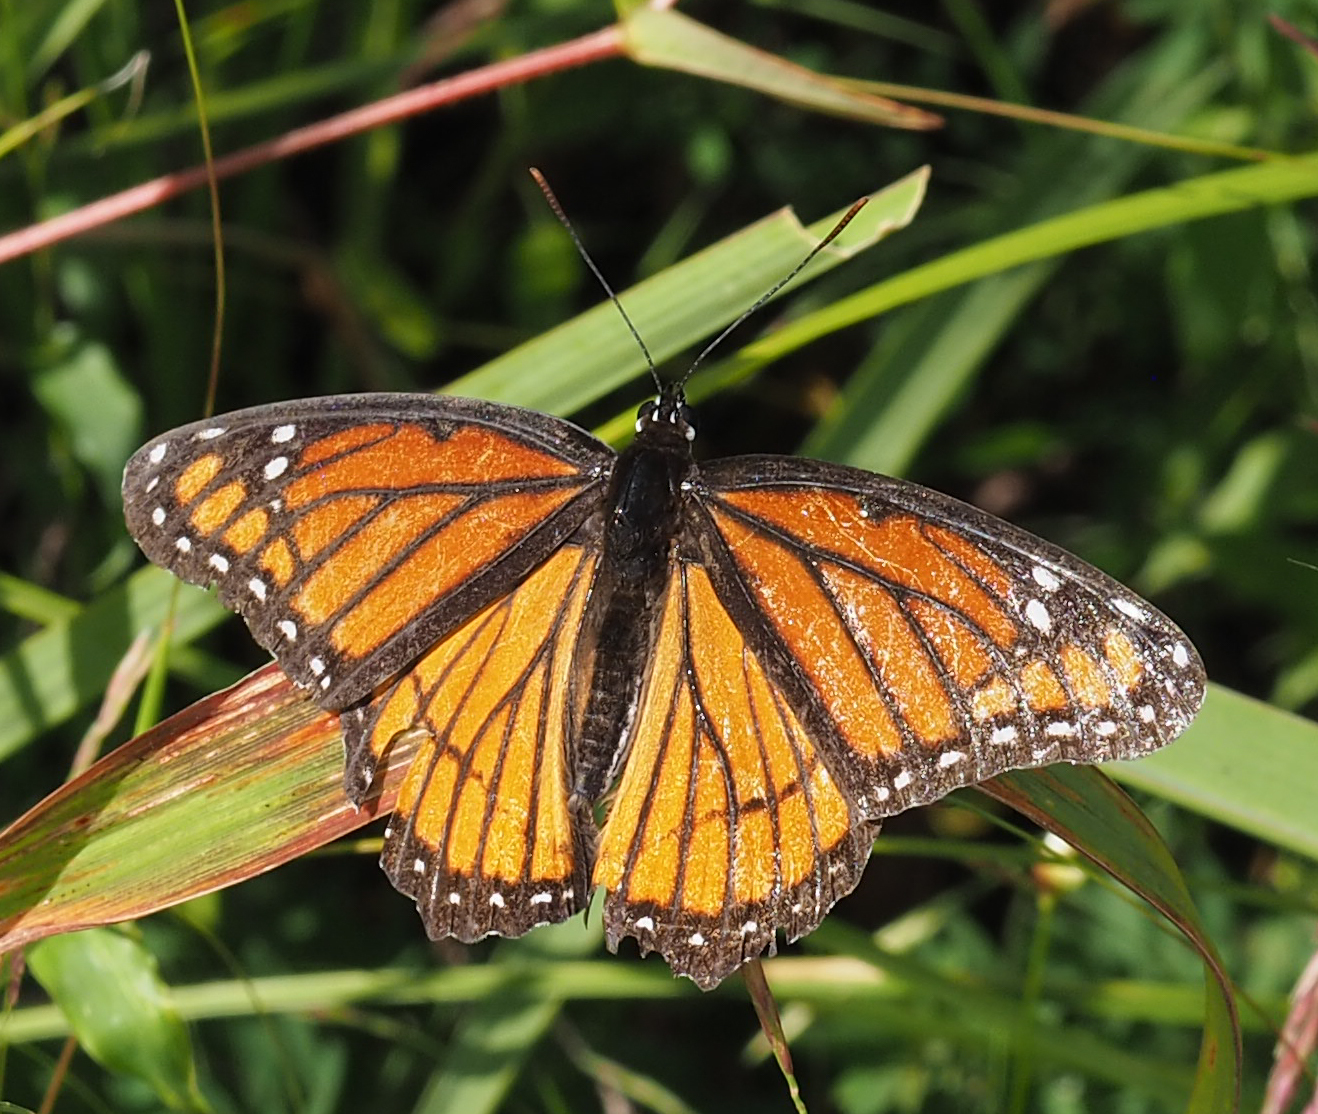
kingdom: Animalia
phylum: Arthropoda
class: Insecta
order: Lepidoptera
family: Nymphalidae
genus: Limenitis
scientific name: Limenitis archippus
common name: Viceroy
